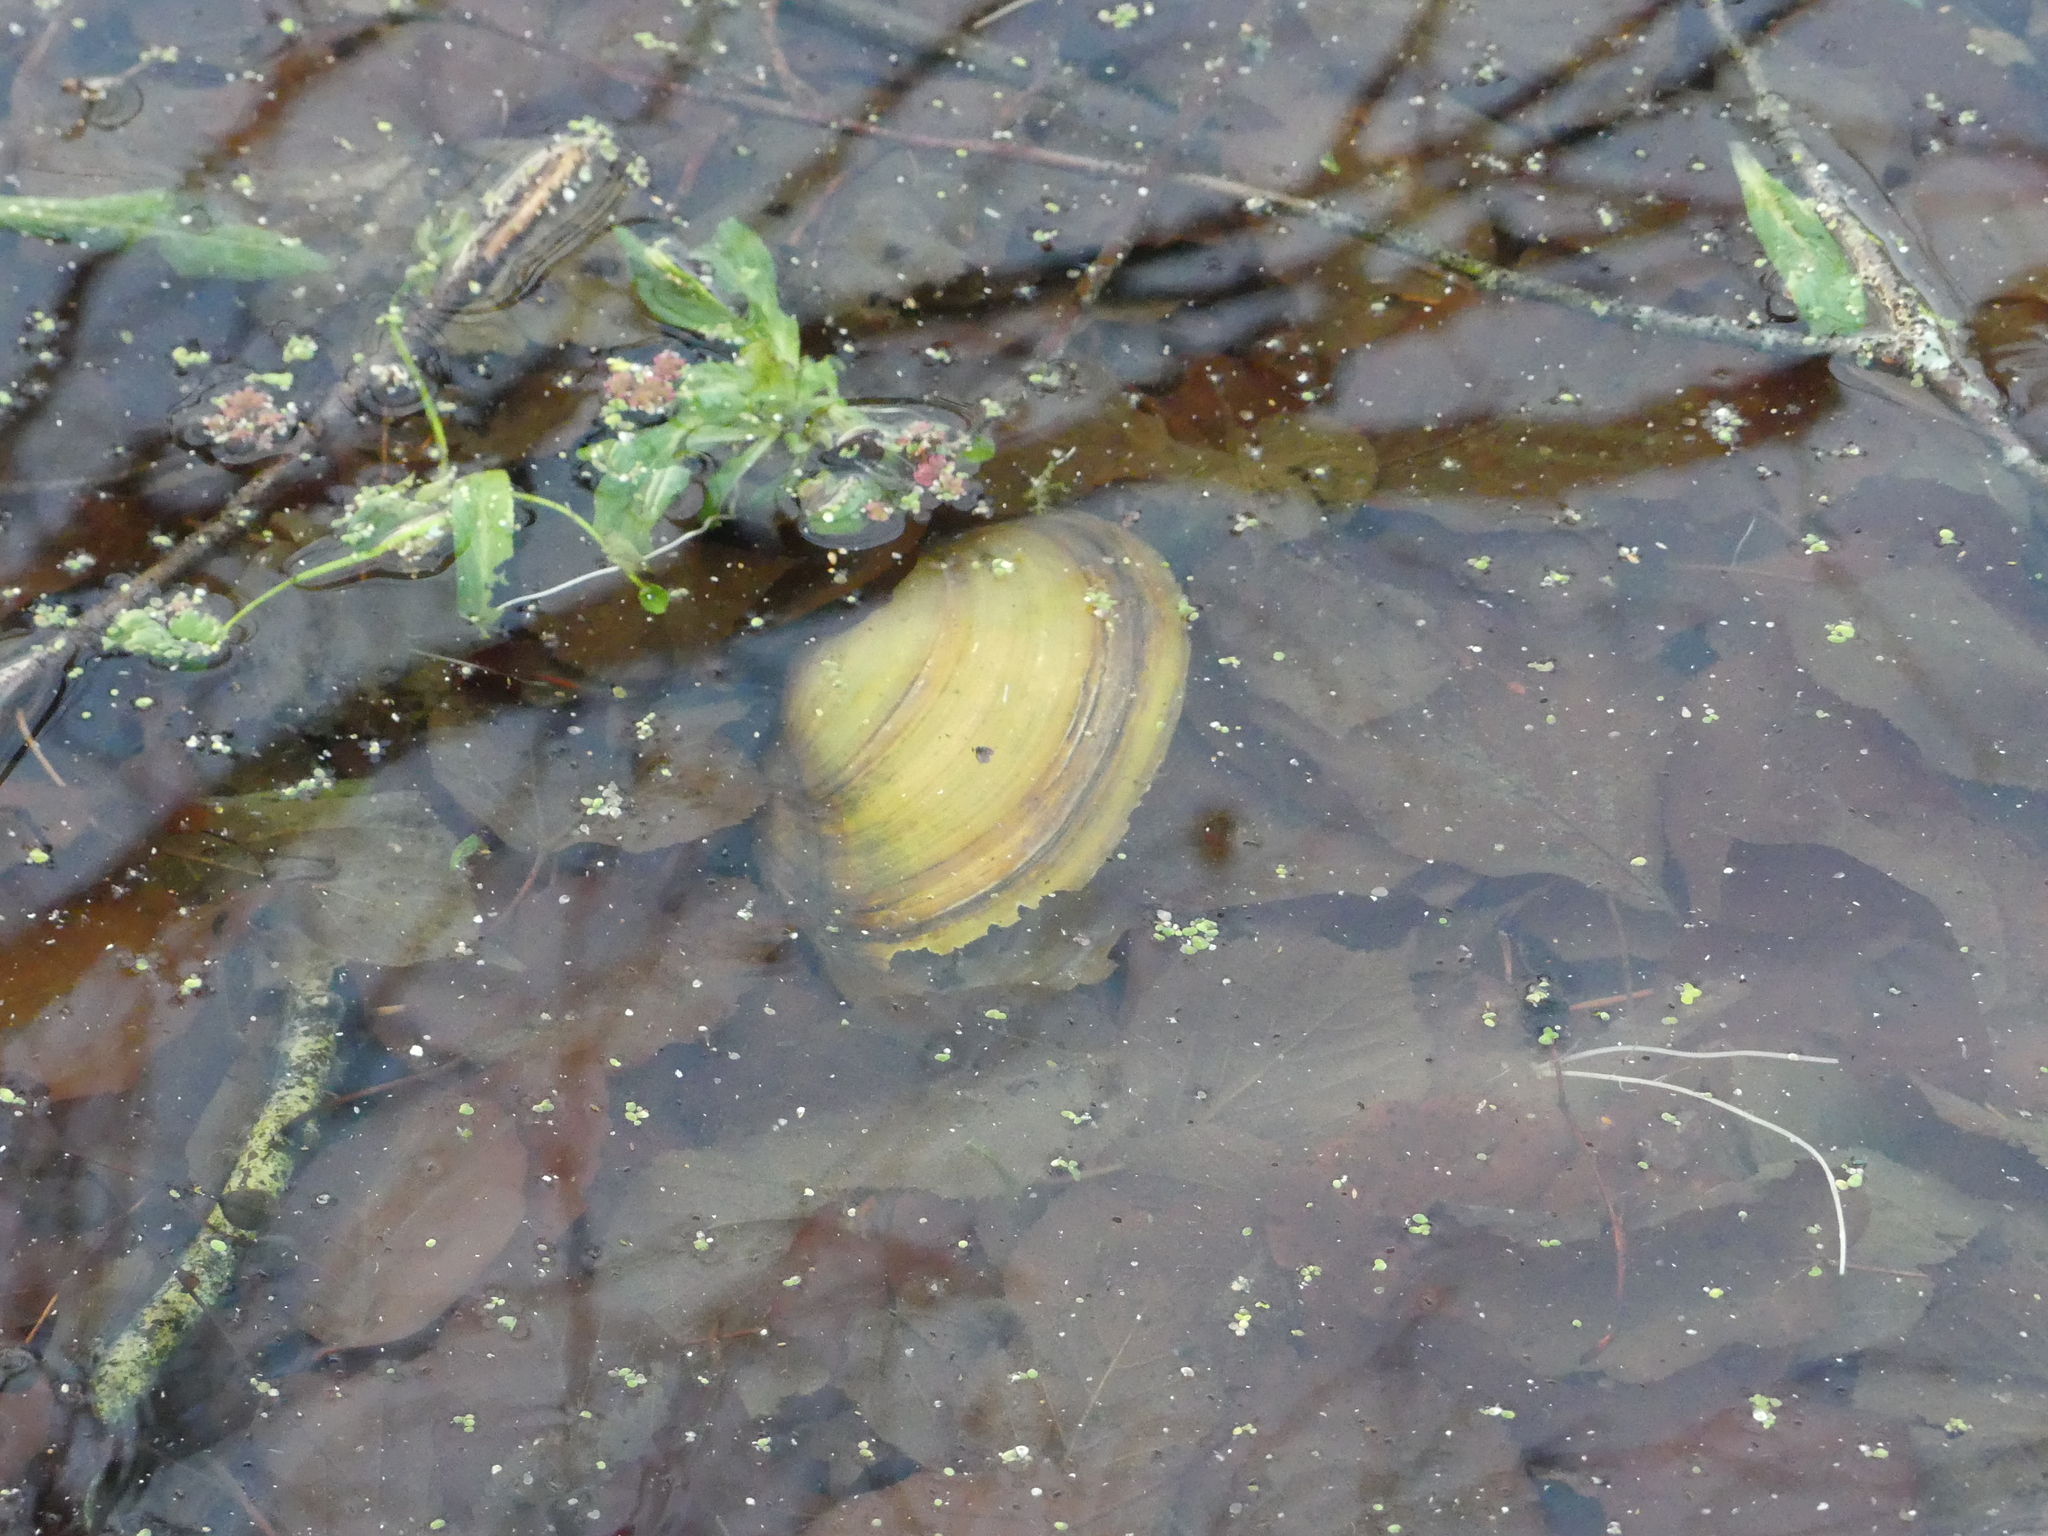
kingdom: Animalia
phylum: Mollusca
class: Bivalvia
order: Unionida
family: Unionidae
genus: Anodonta
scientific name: Anodonta anatina
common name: Duck mussel
